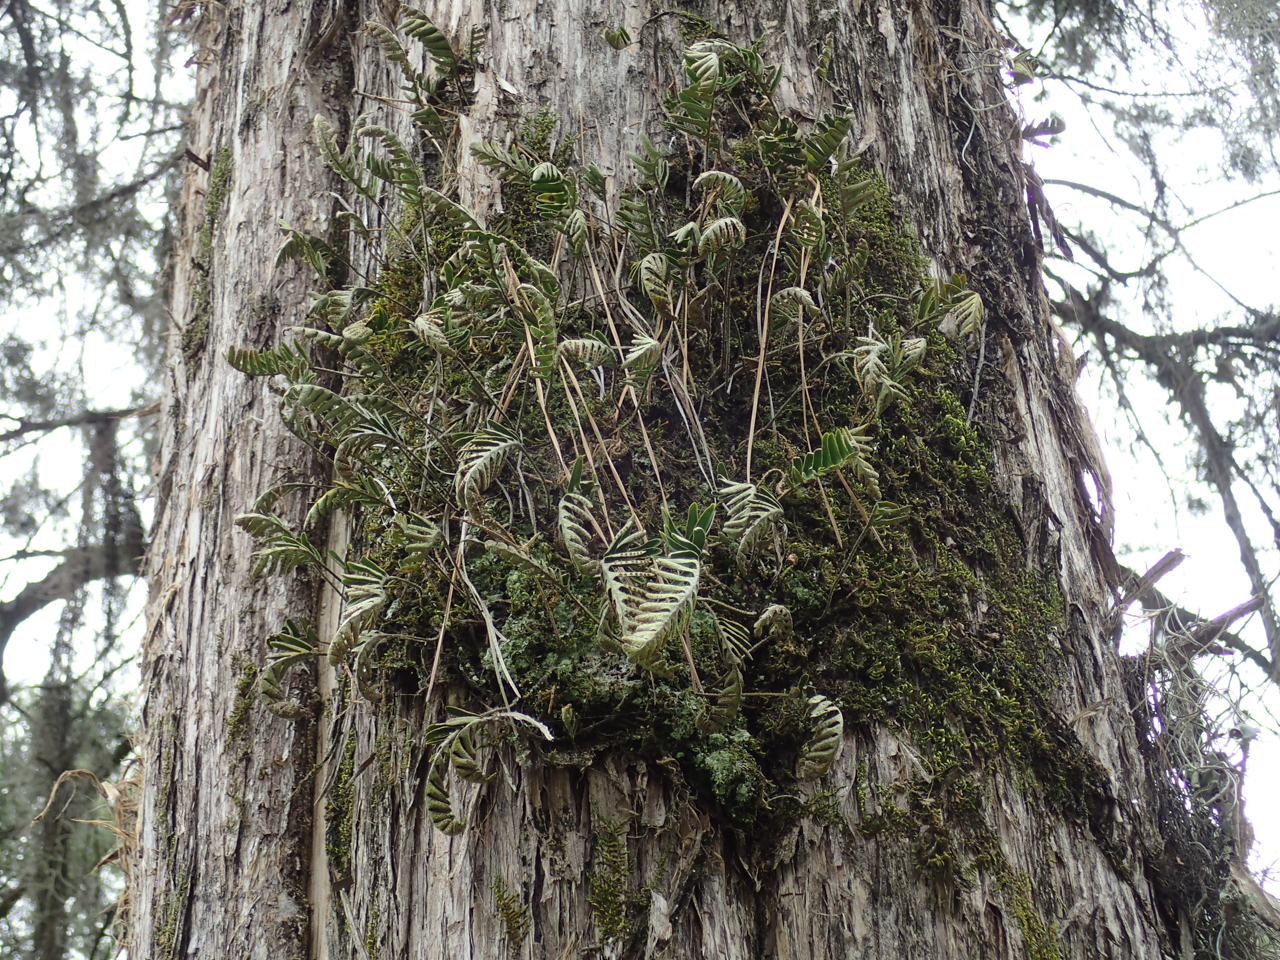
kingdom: Plantae
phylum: Tracheophyta
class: Polypodiopsida
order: Polypodiales
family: Polypodiaceae
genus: Pleopeltis
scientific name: Pleopeltis michauxiana
